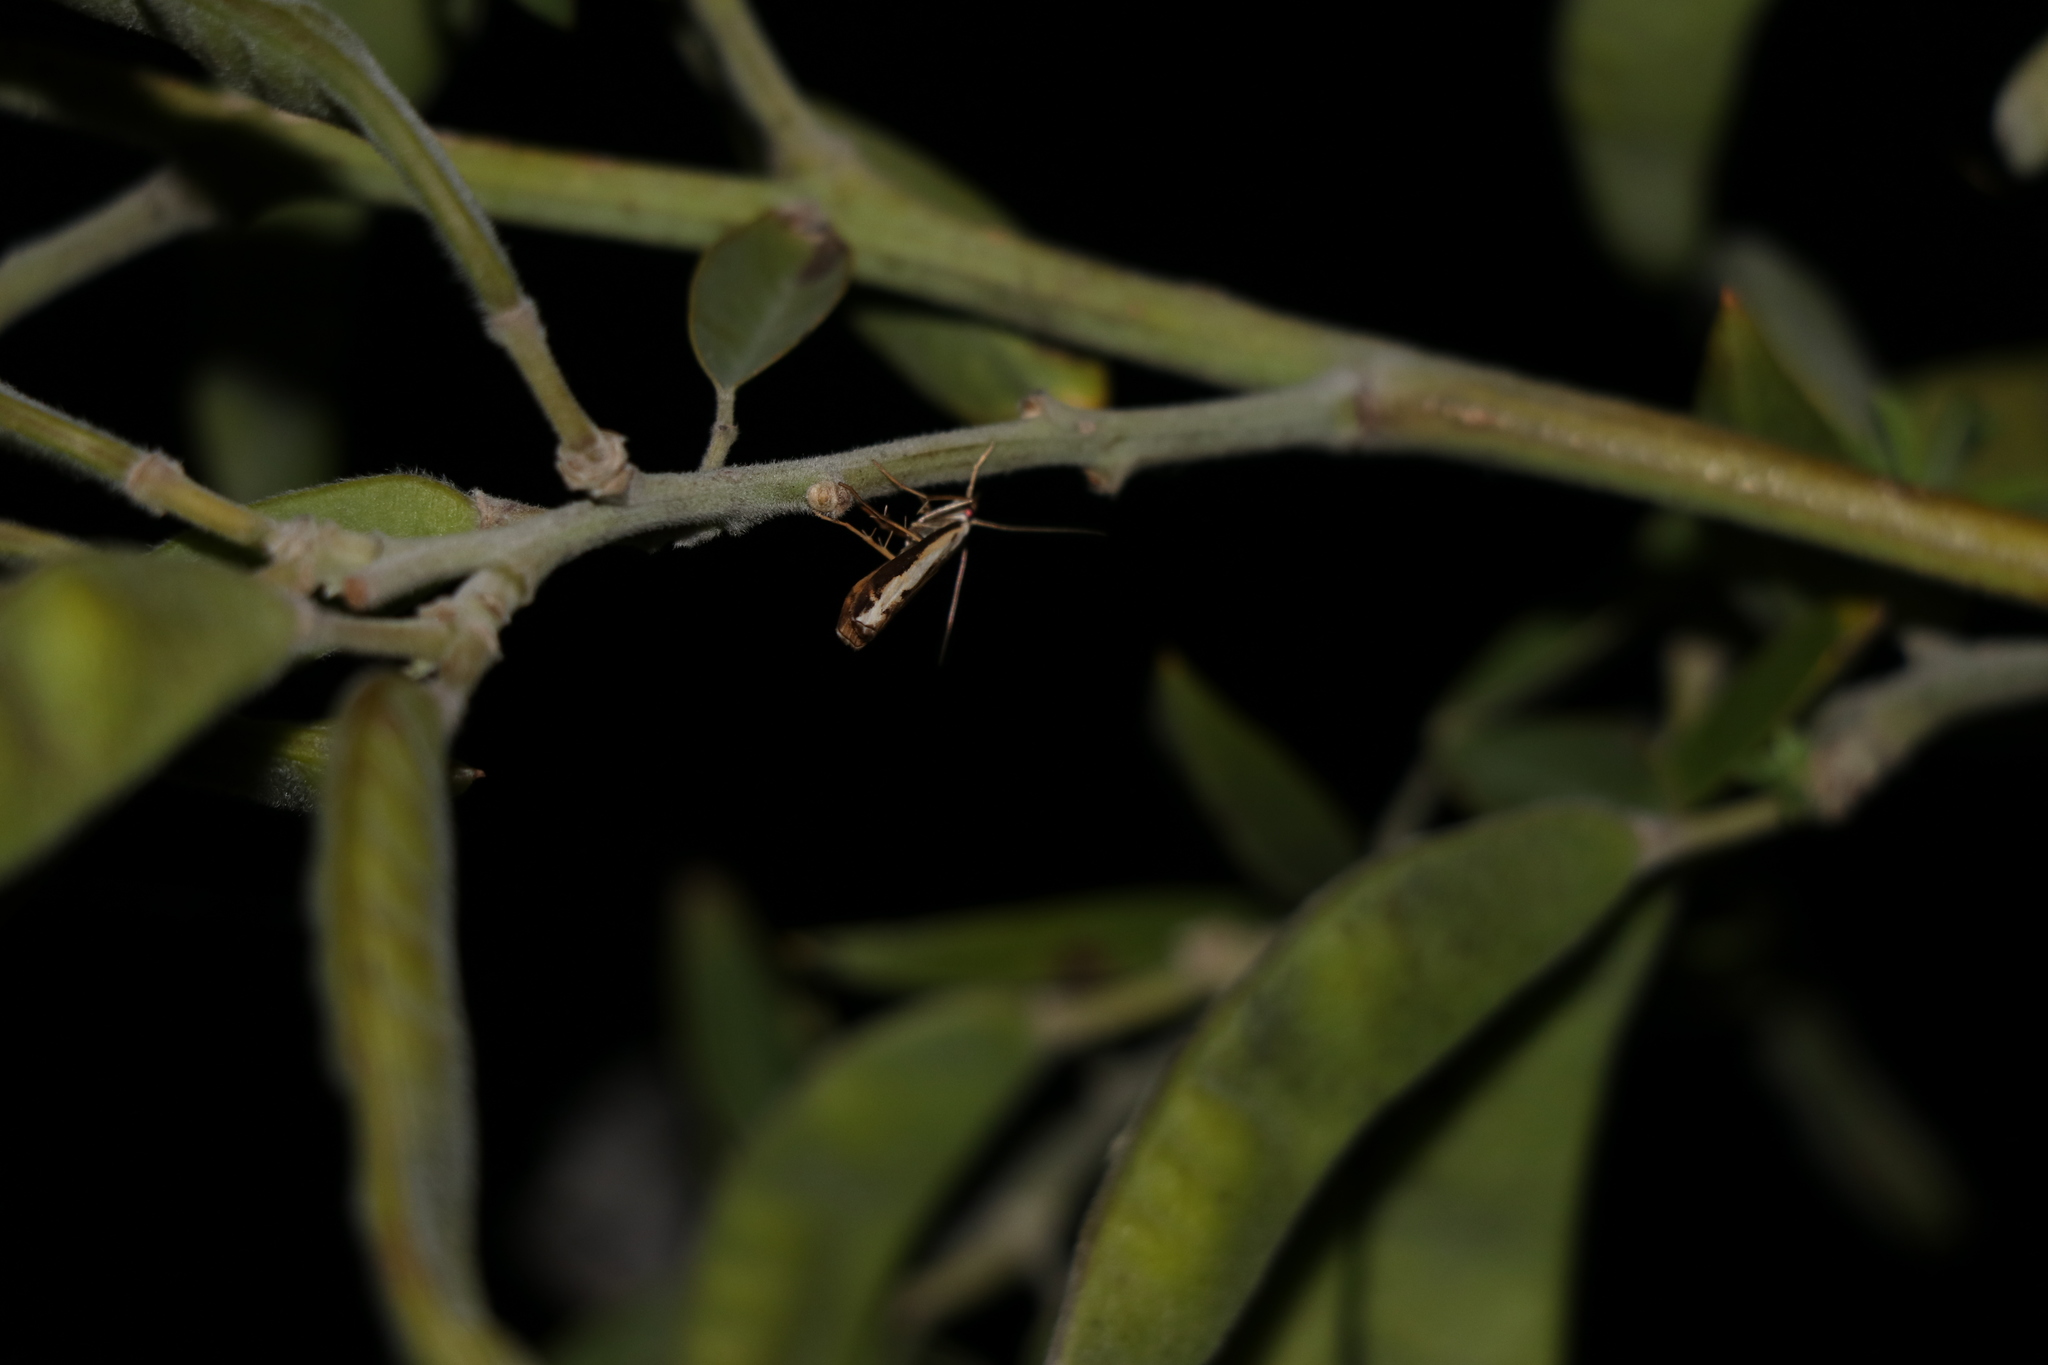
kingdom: Animalia
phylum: Arthropoda
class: Insecta
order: Lepidoptera
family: Crambidae
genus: Orocrambus
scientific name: Orocrambus flexuosellus
